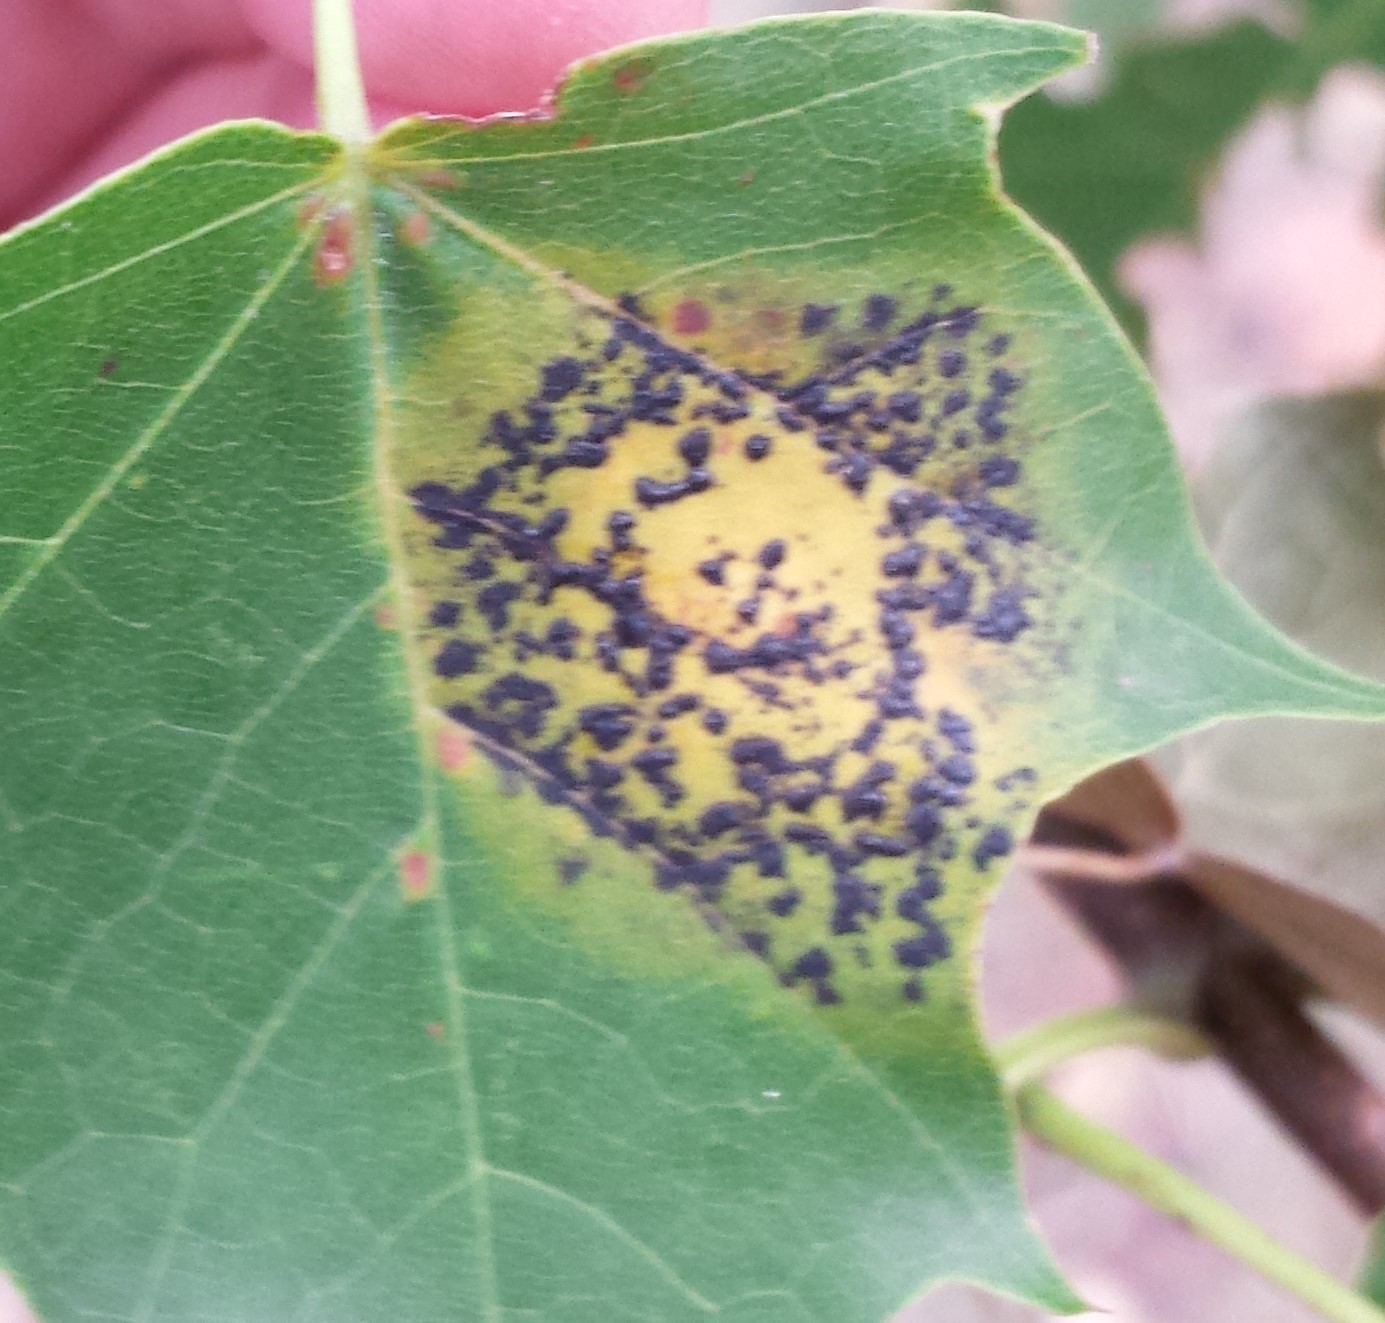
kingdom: Fungi
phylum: Ascomycota
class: Leotiomycetes
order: Rhytismatales
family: Rhytismataceae
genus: Rhytisma
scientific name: Rhytisma acerinum
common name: European tar spot
